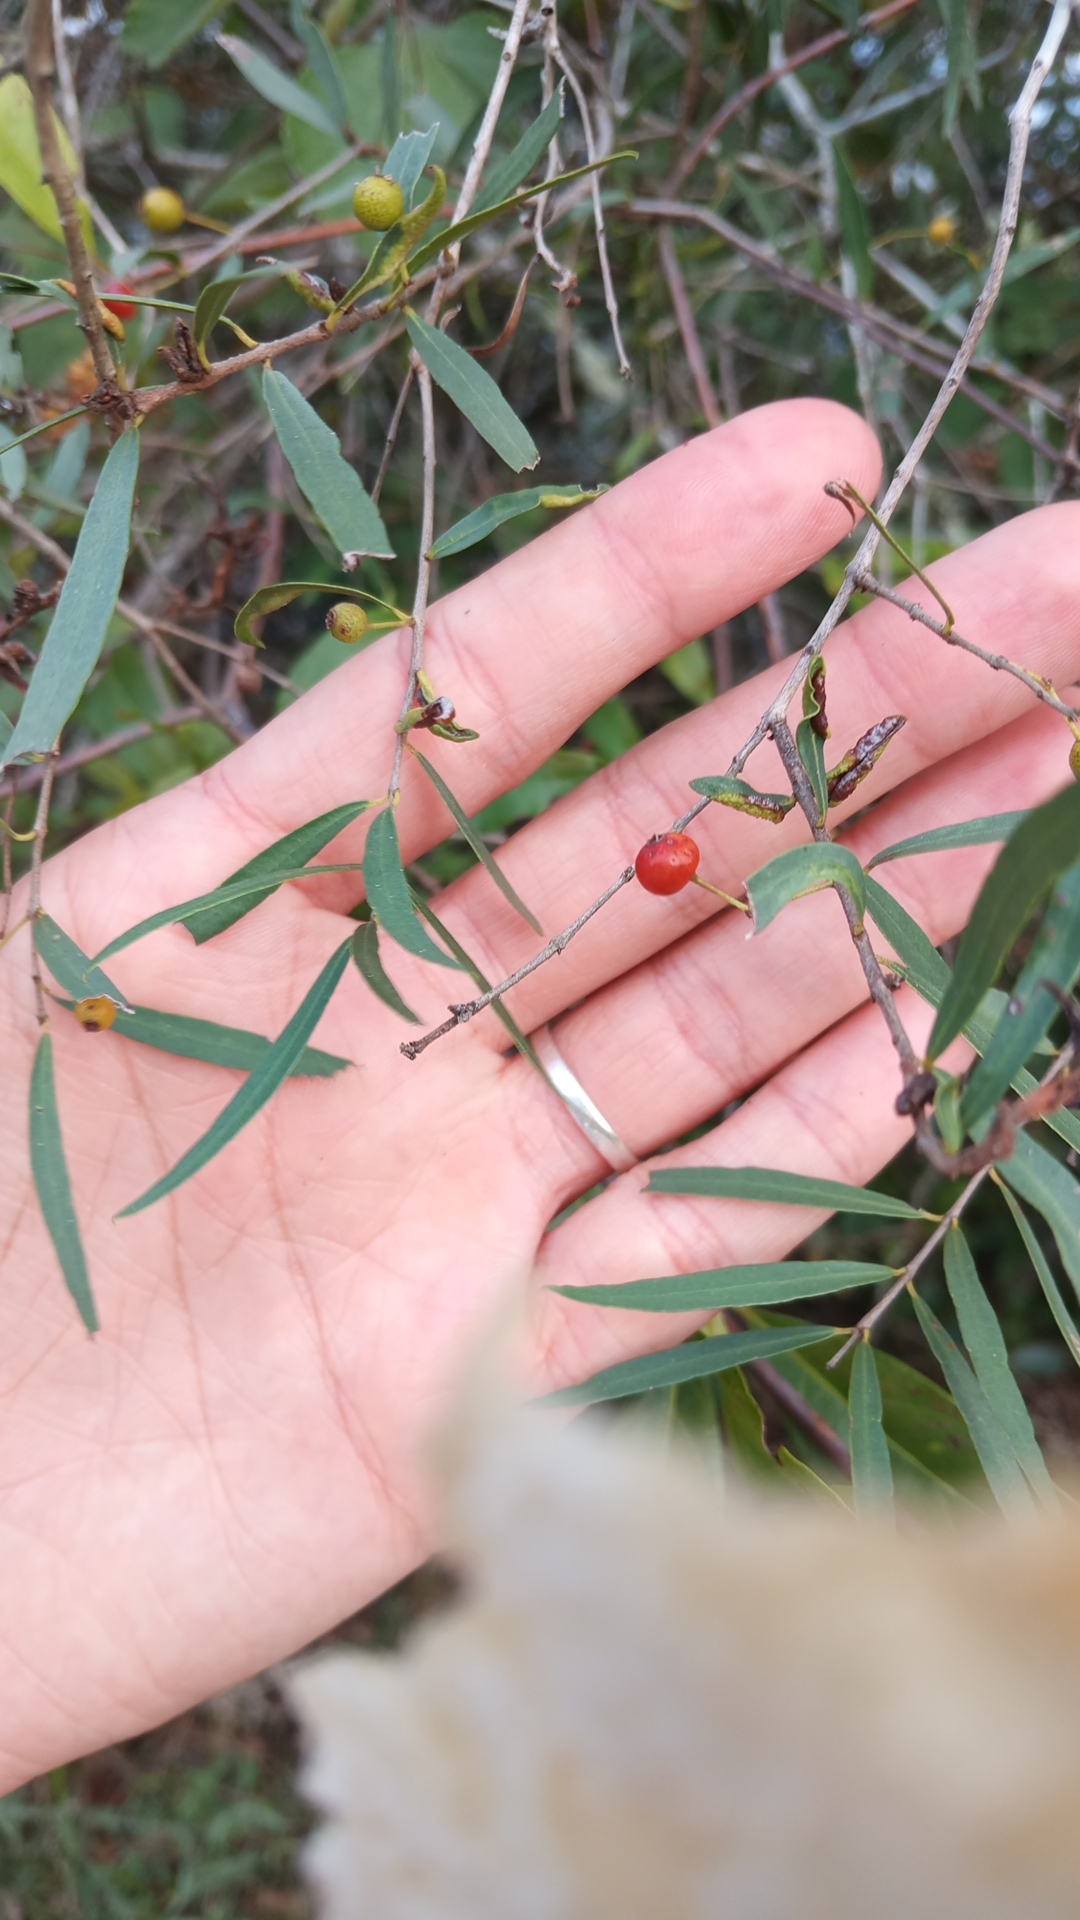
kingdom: Plantae
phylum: Tracheophyta
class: Magnoliopsida
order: Myrtales
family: Myrtaceae
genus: Blepharocalyx
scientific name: Blepharocalyx salicifolius
